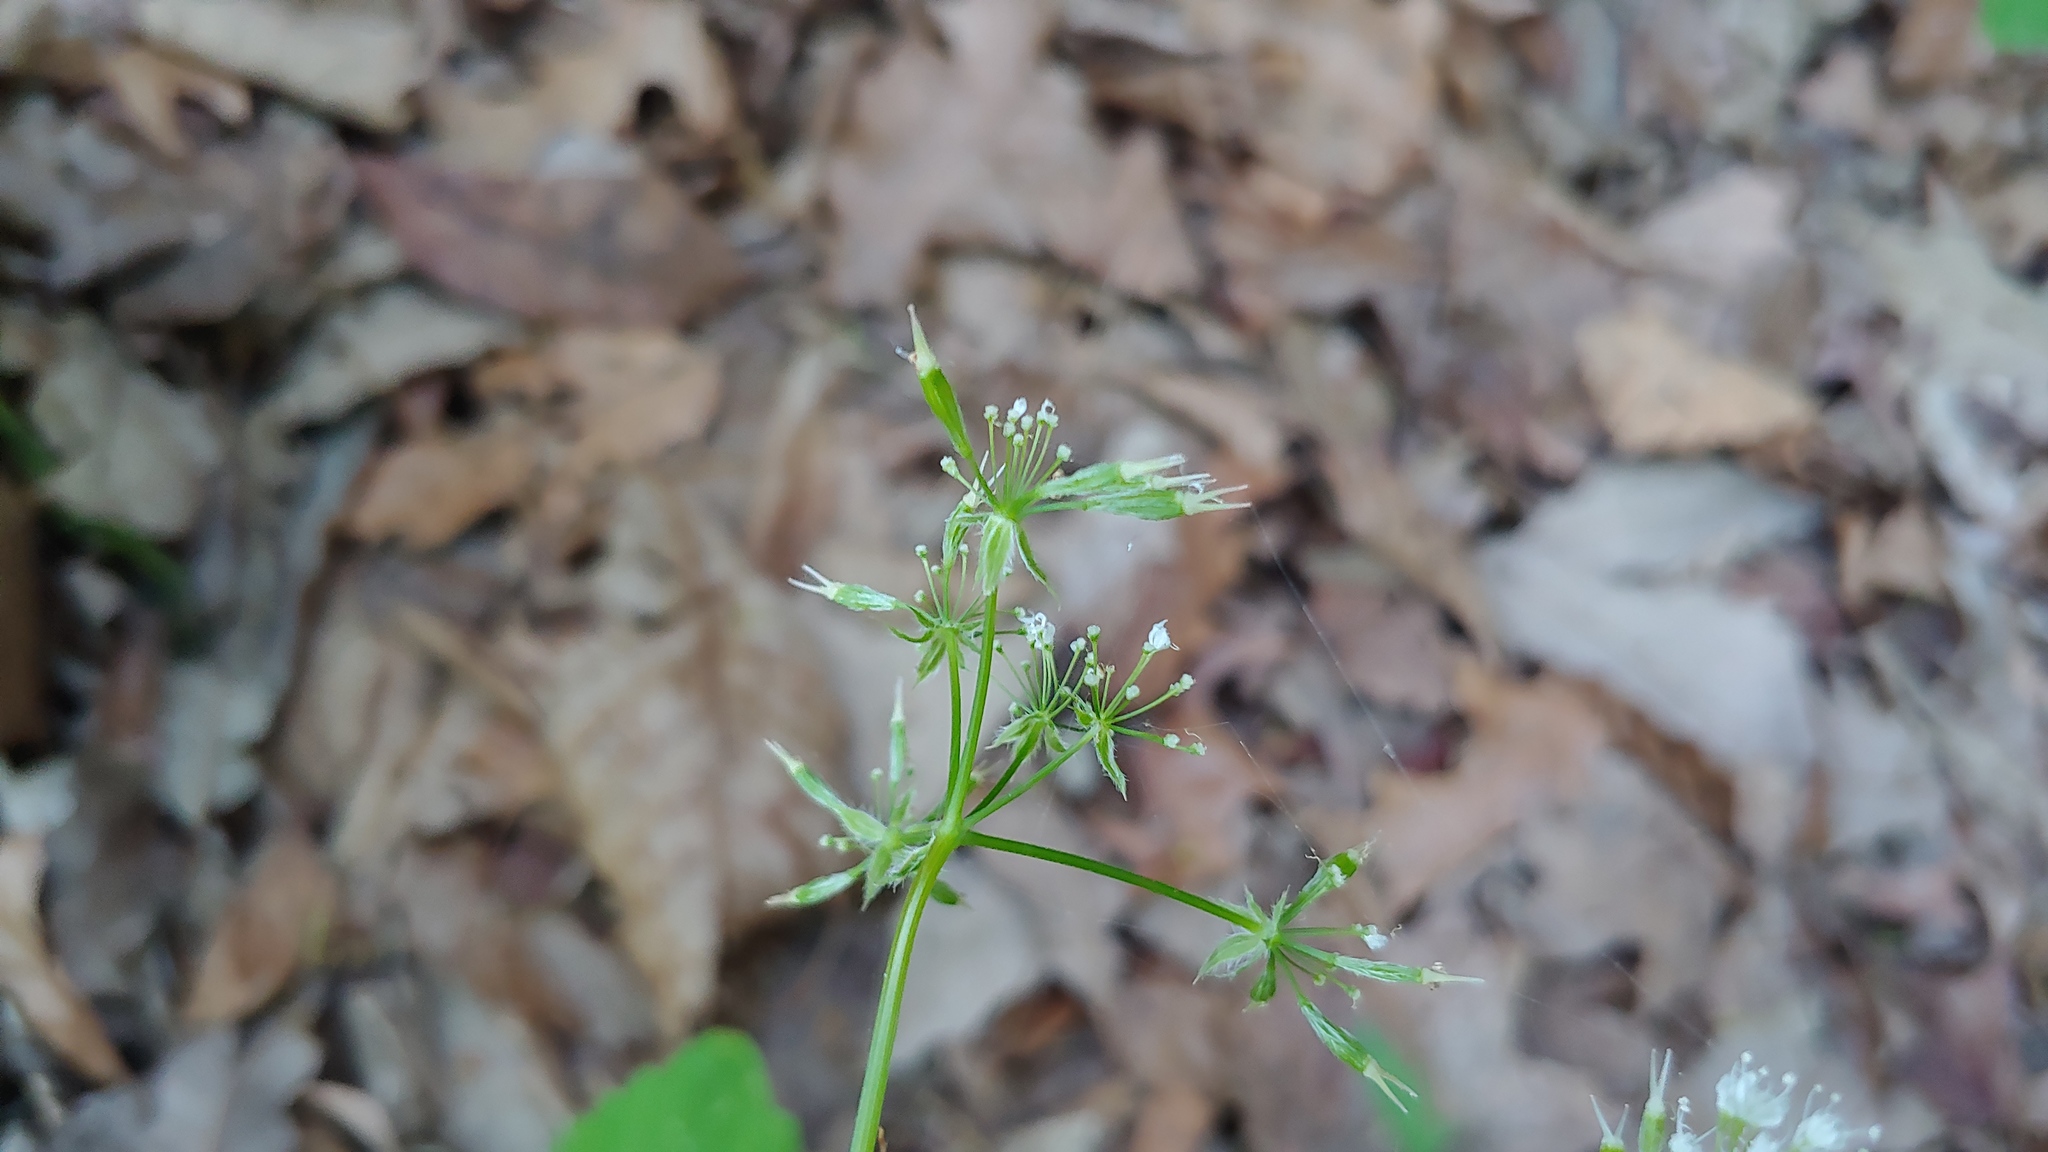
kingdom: Plantae
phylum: Tracheophyta
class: Magnoliopsida
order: Apiales
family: Apiaceae
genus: Osmorhiza
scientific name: Osmorhiza longistylis
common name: Smooth sweet cicely
